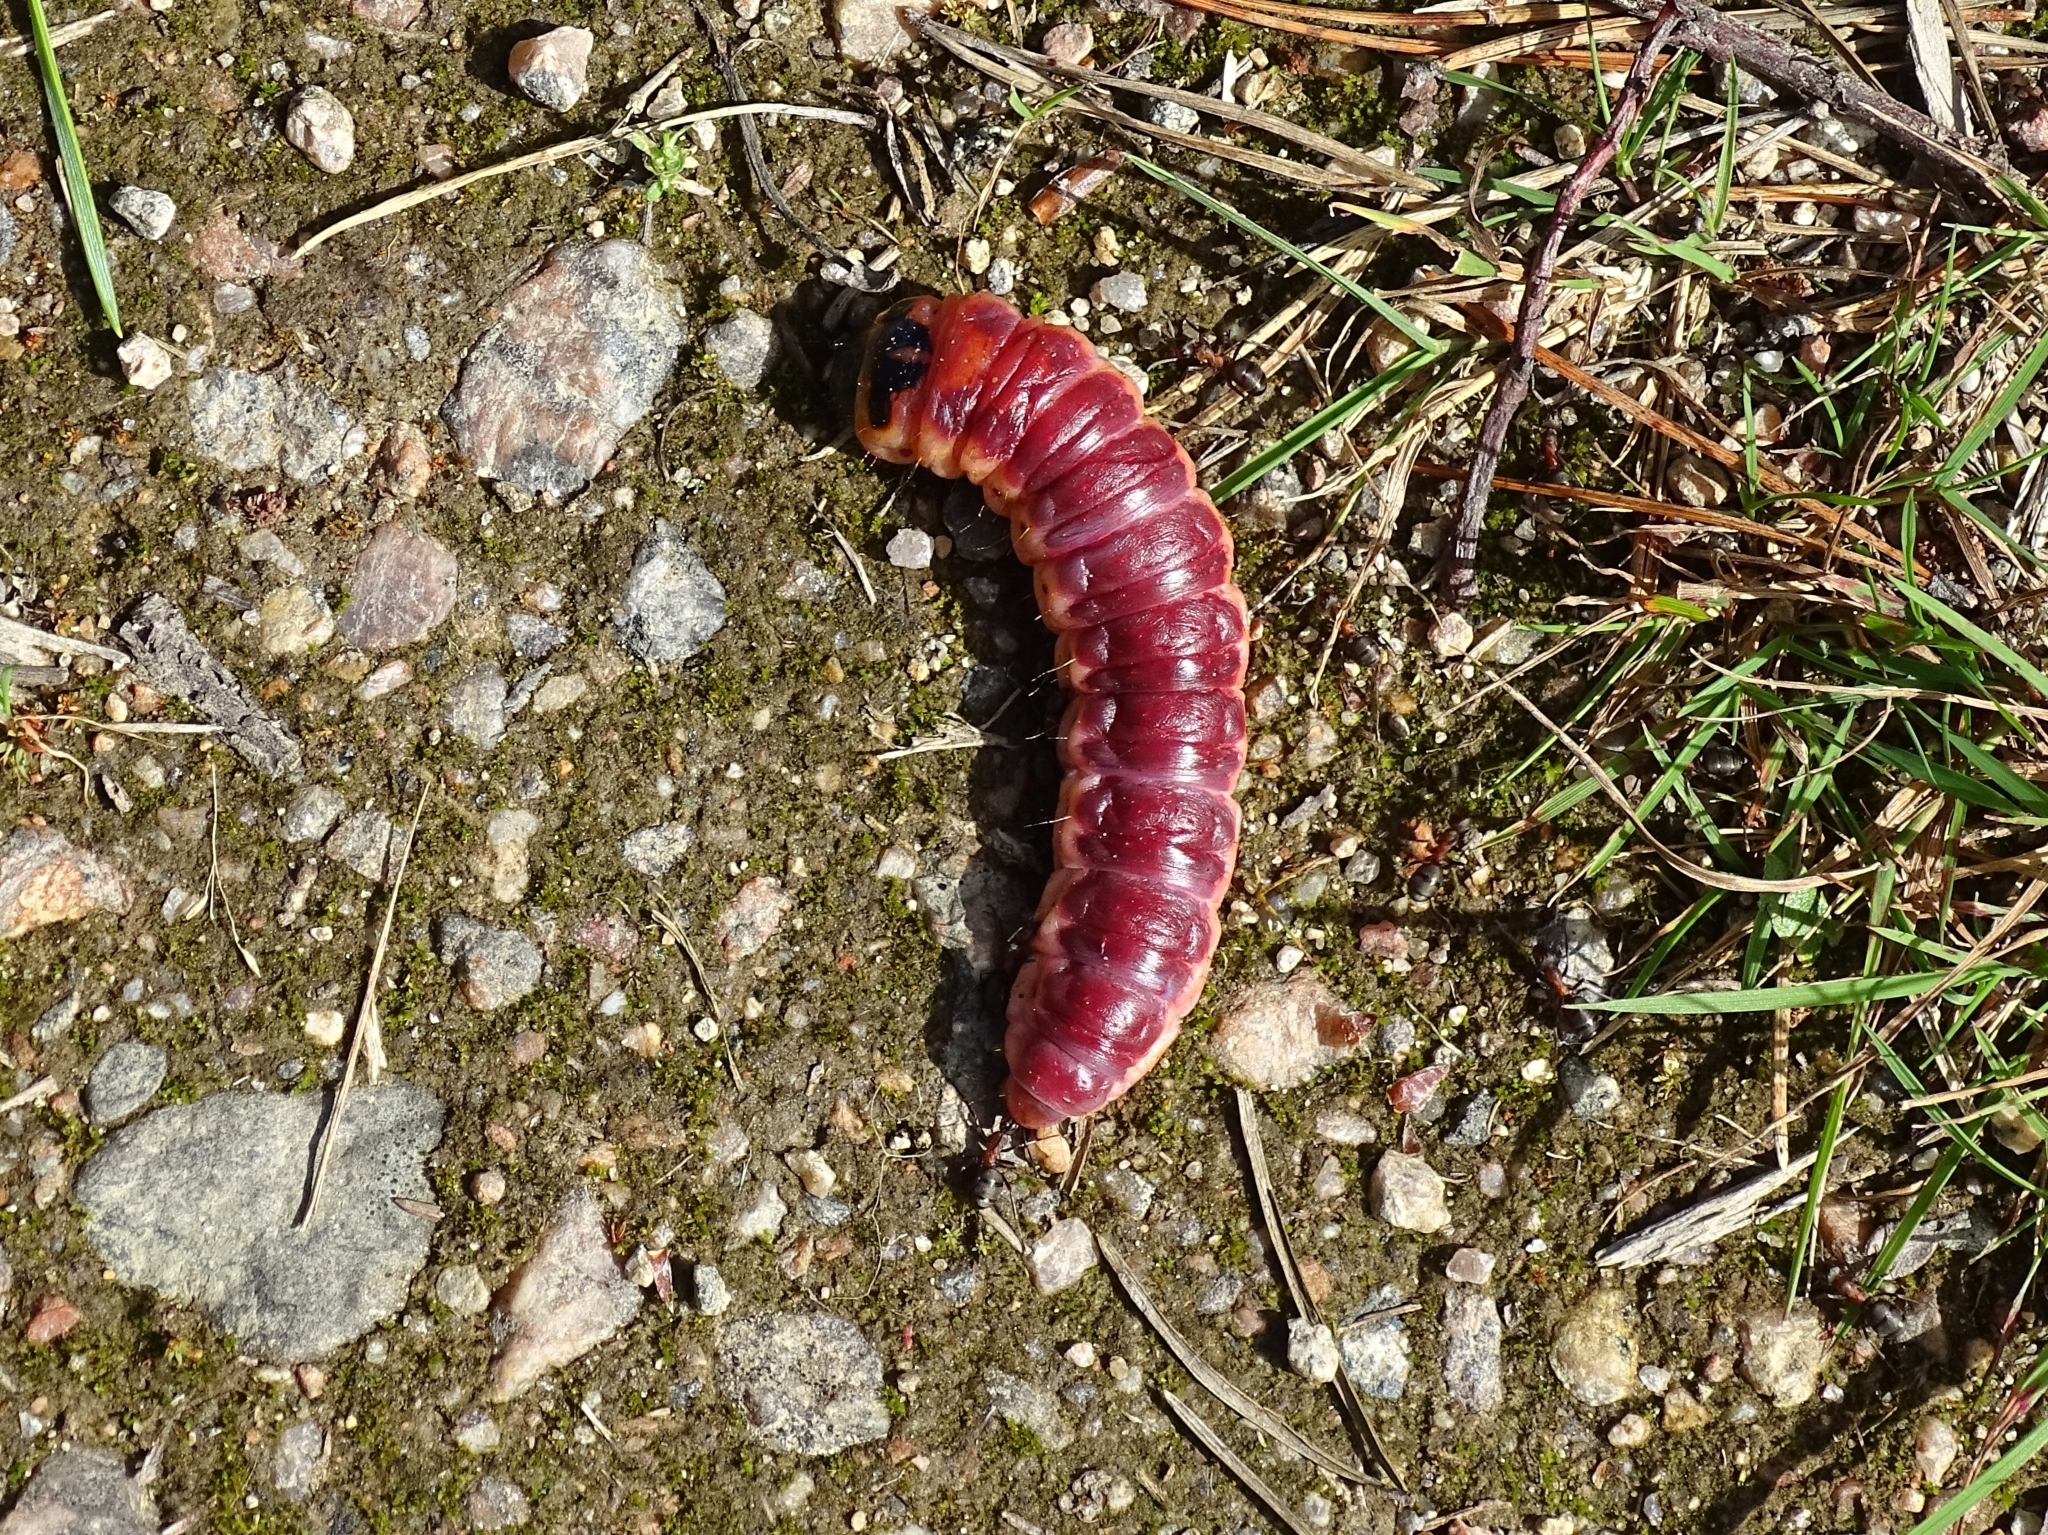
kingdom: Animalia
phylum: Arthropoda
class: Insecta
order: Lepidoptera
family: Cossidae
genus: Cossus
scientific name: Cossus cossus
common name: Goat moth
